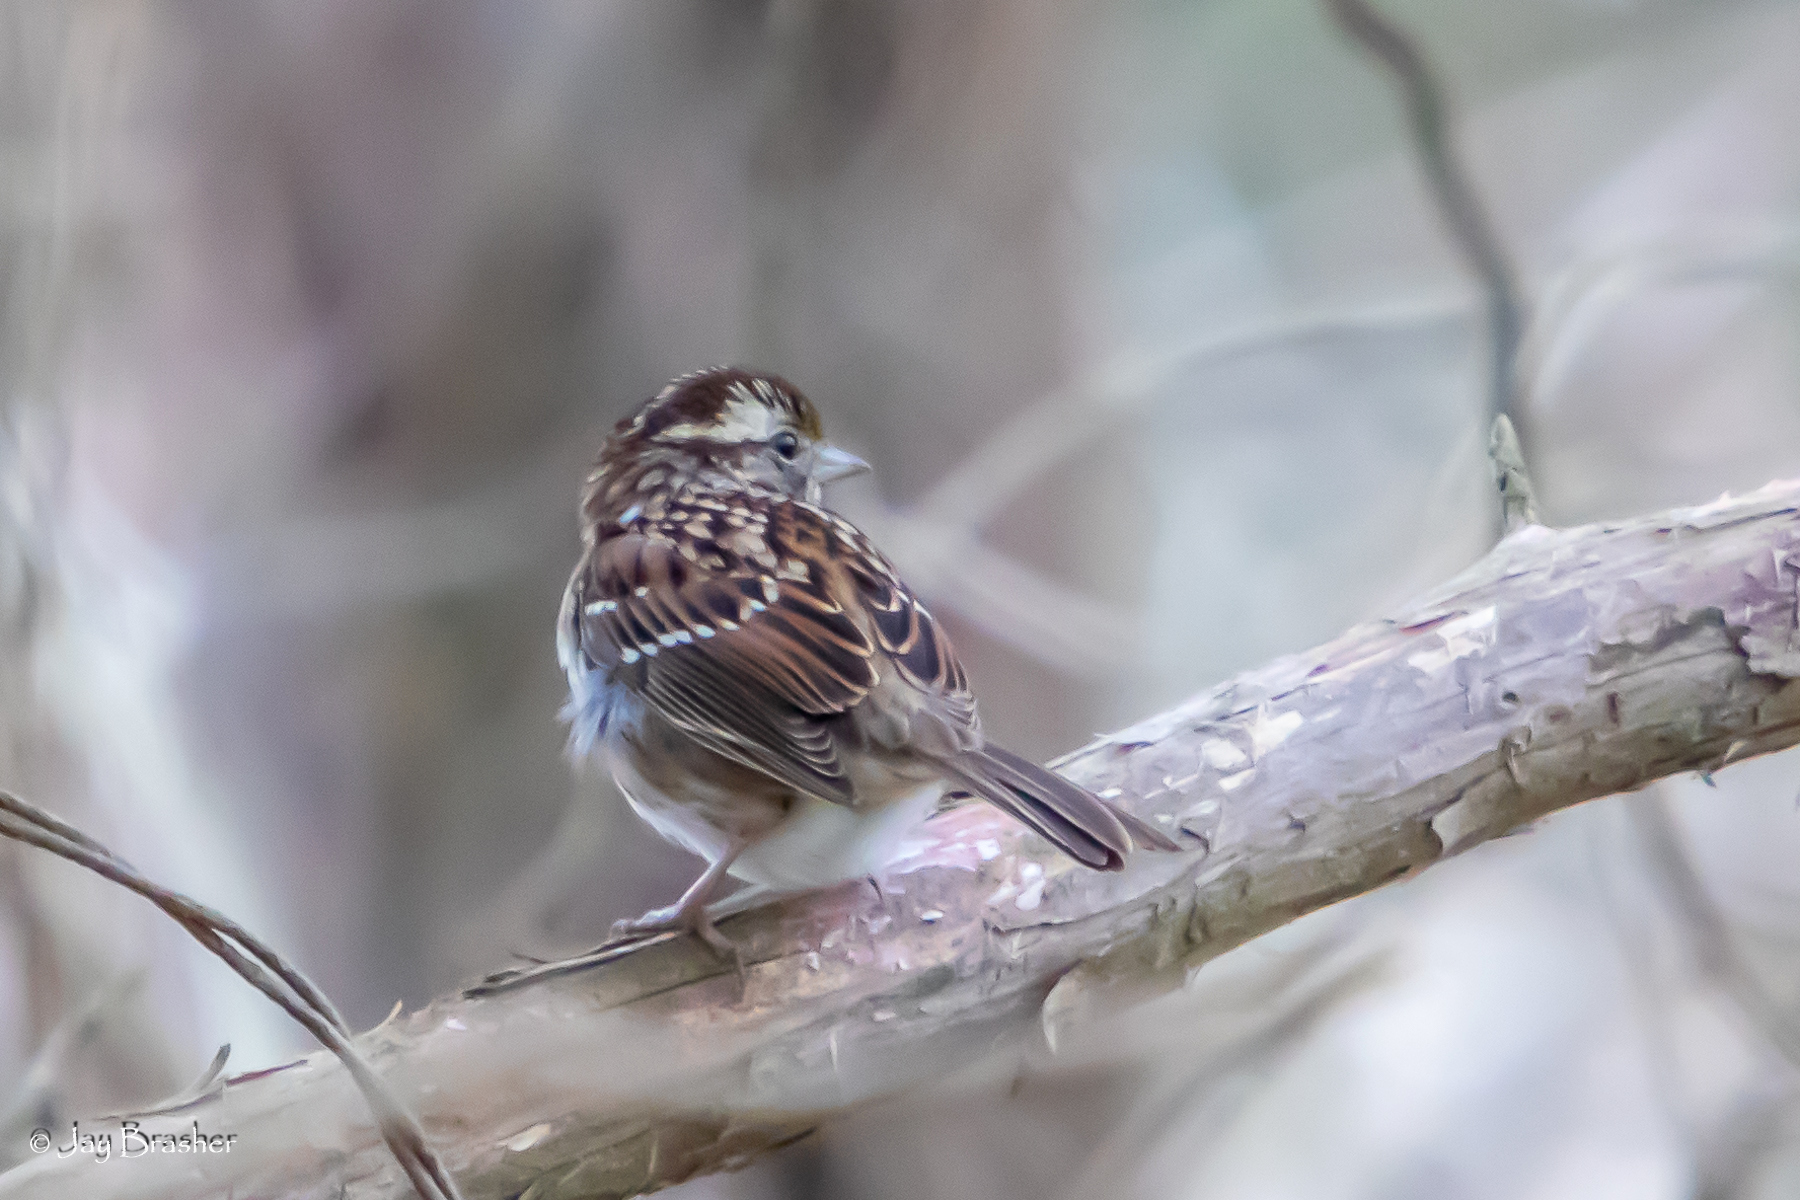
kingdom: Animalia
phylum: Chordata
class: Aves
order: Passeriformes
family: Passerellidae
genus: Zonotrichia
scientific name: Zonotrichia albicollis
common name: White-throated sparrow
